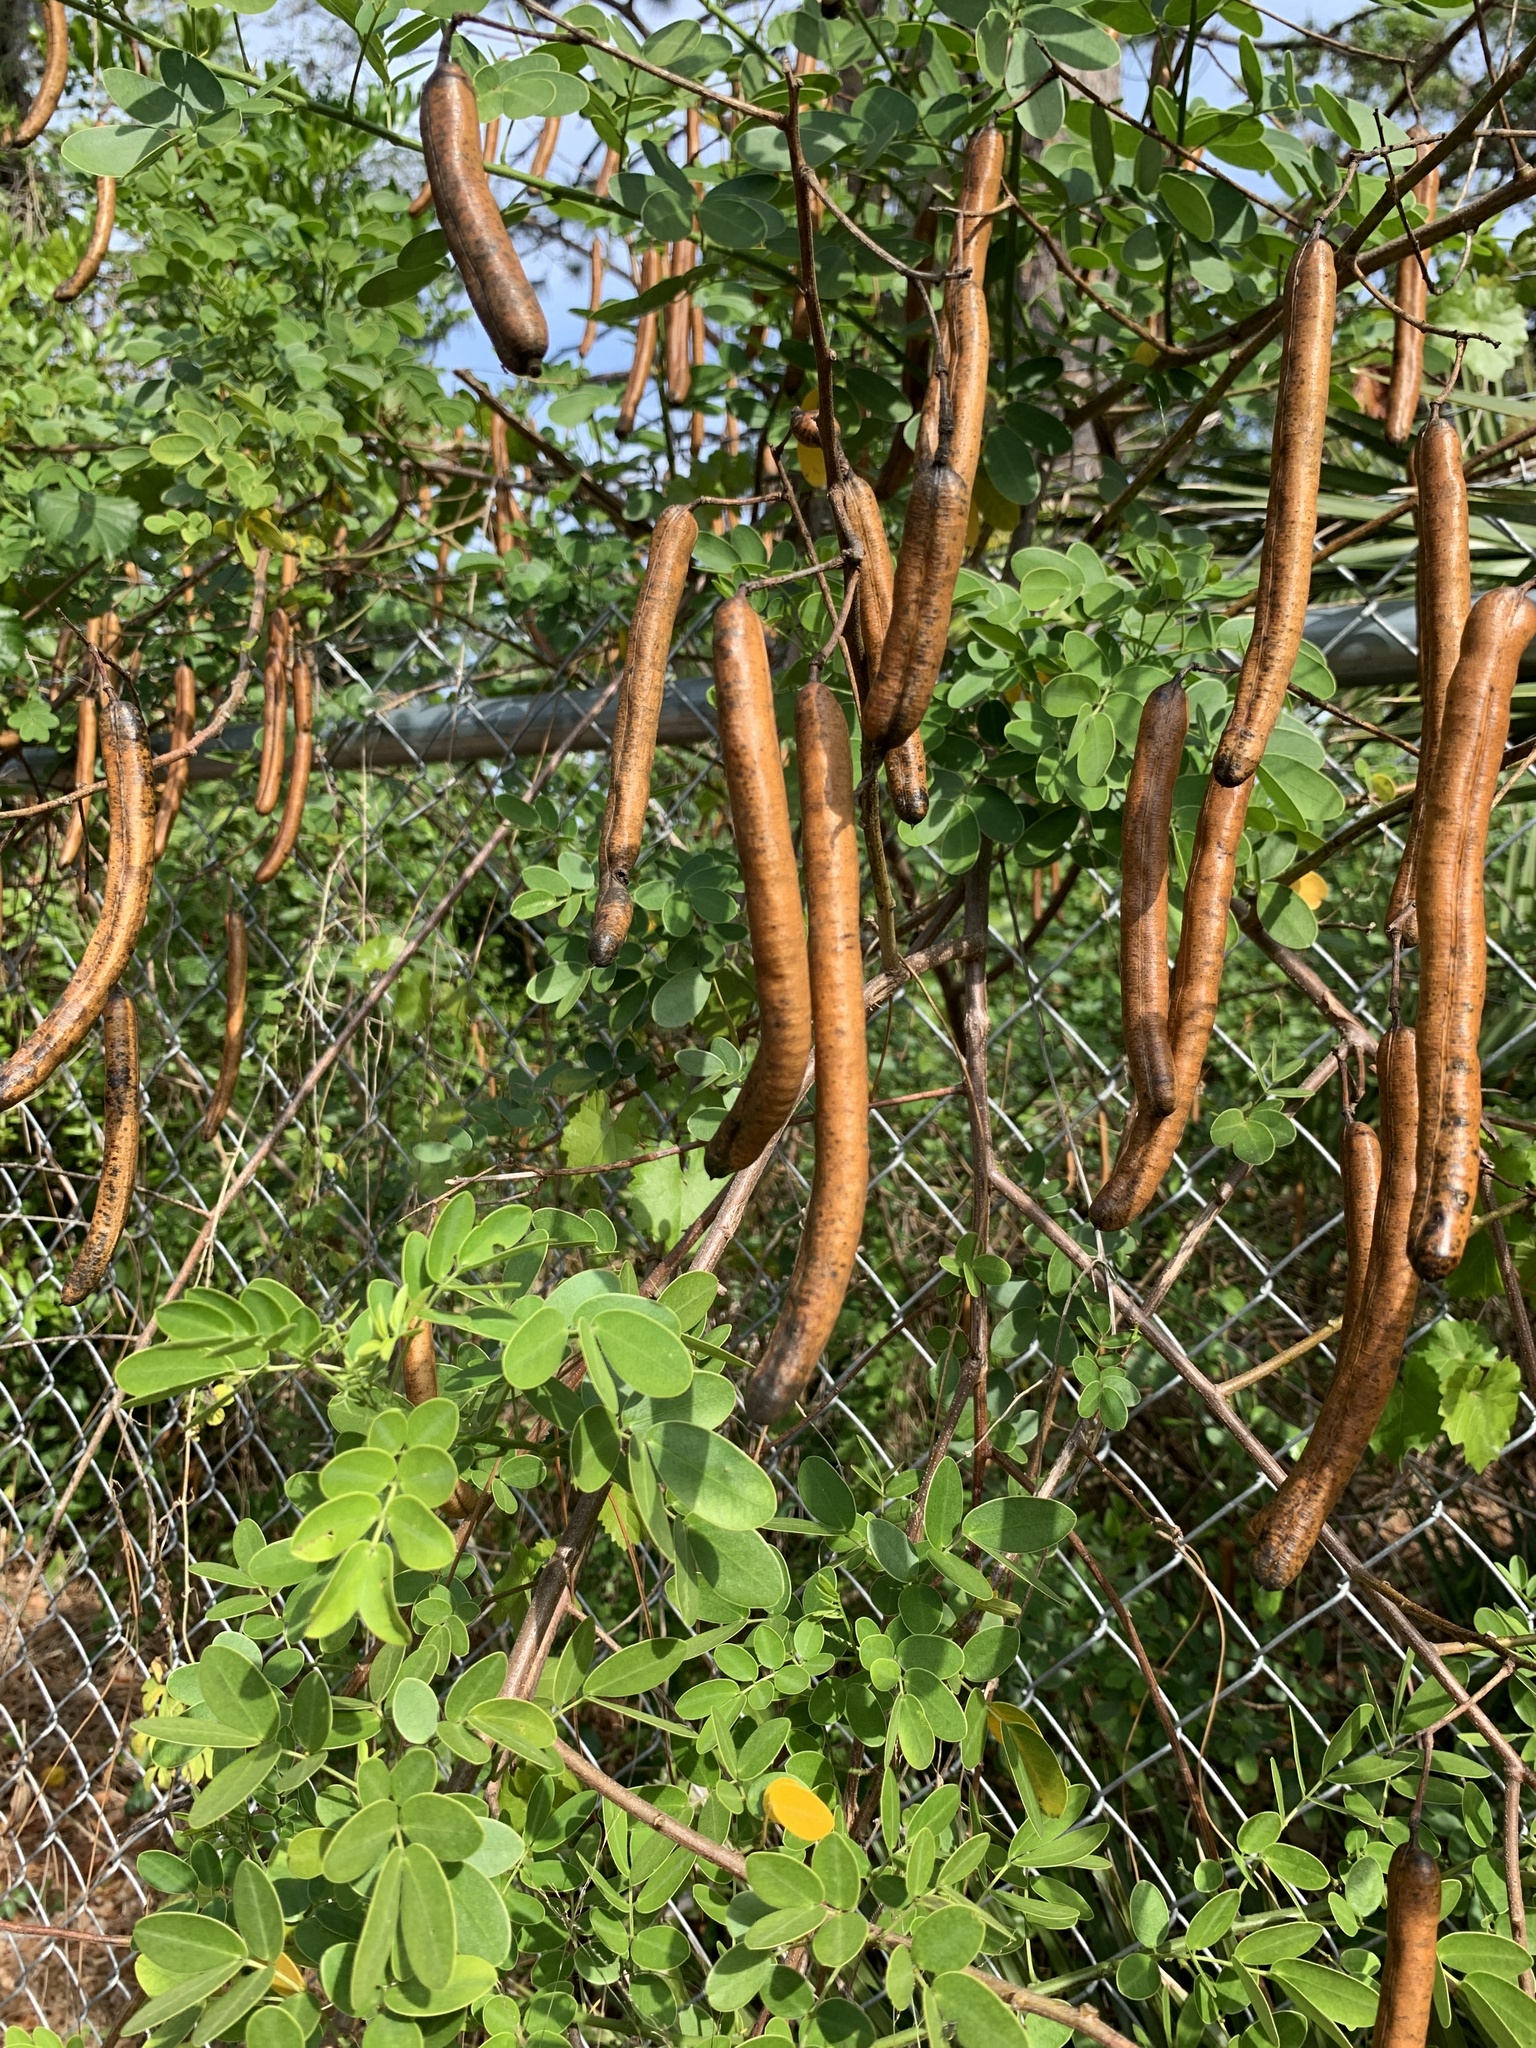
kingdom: Plantae
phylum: Tracheophyta
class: Magnoliopsida
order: Fabales
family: Fabaceae
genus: Senna
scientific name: Senna pendula
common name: Easter cassia
